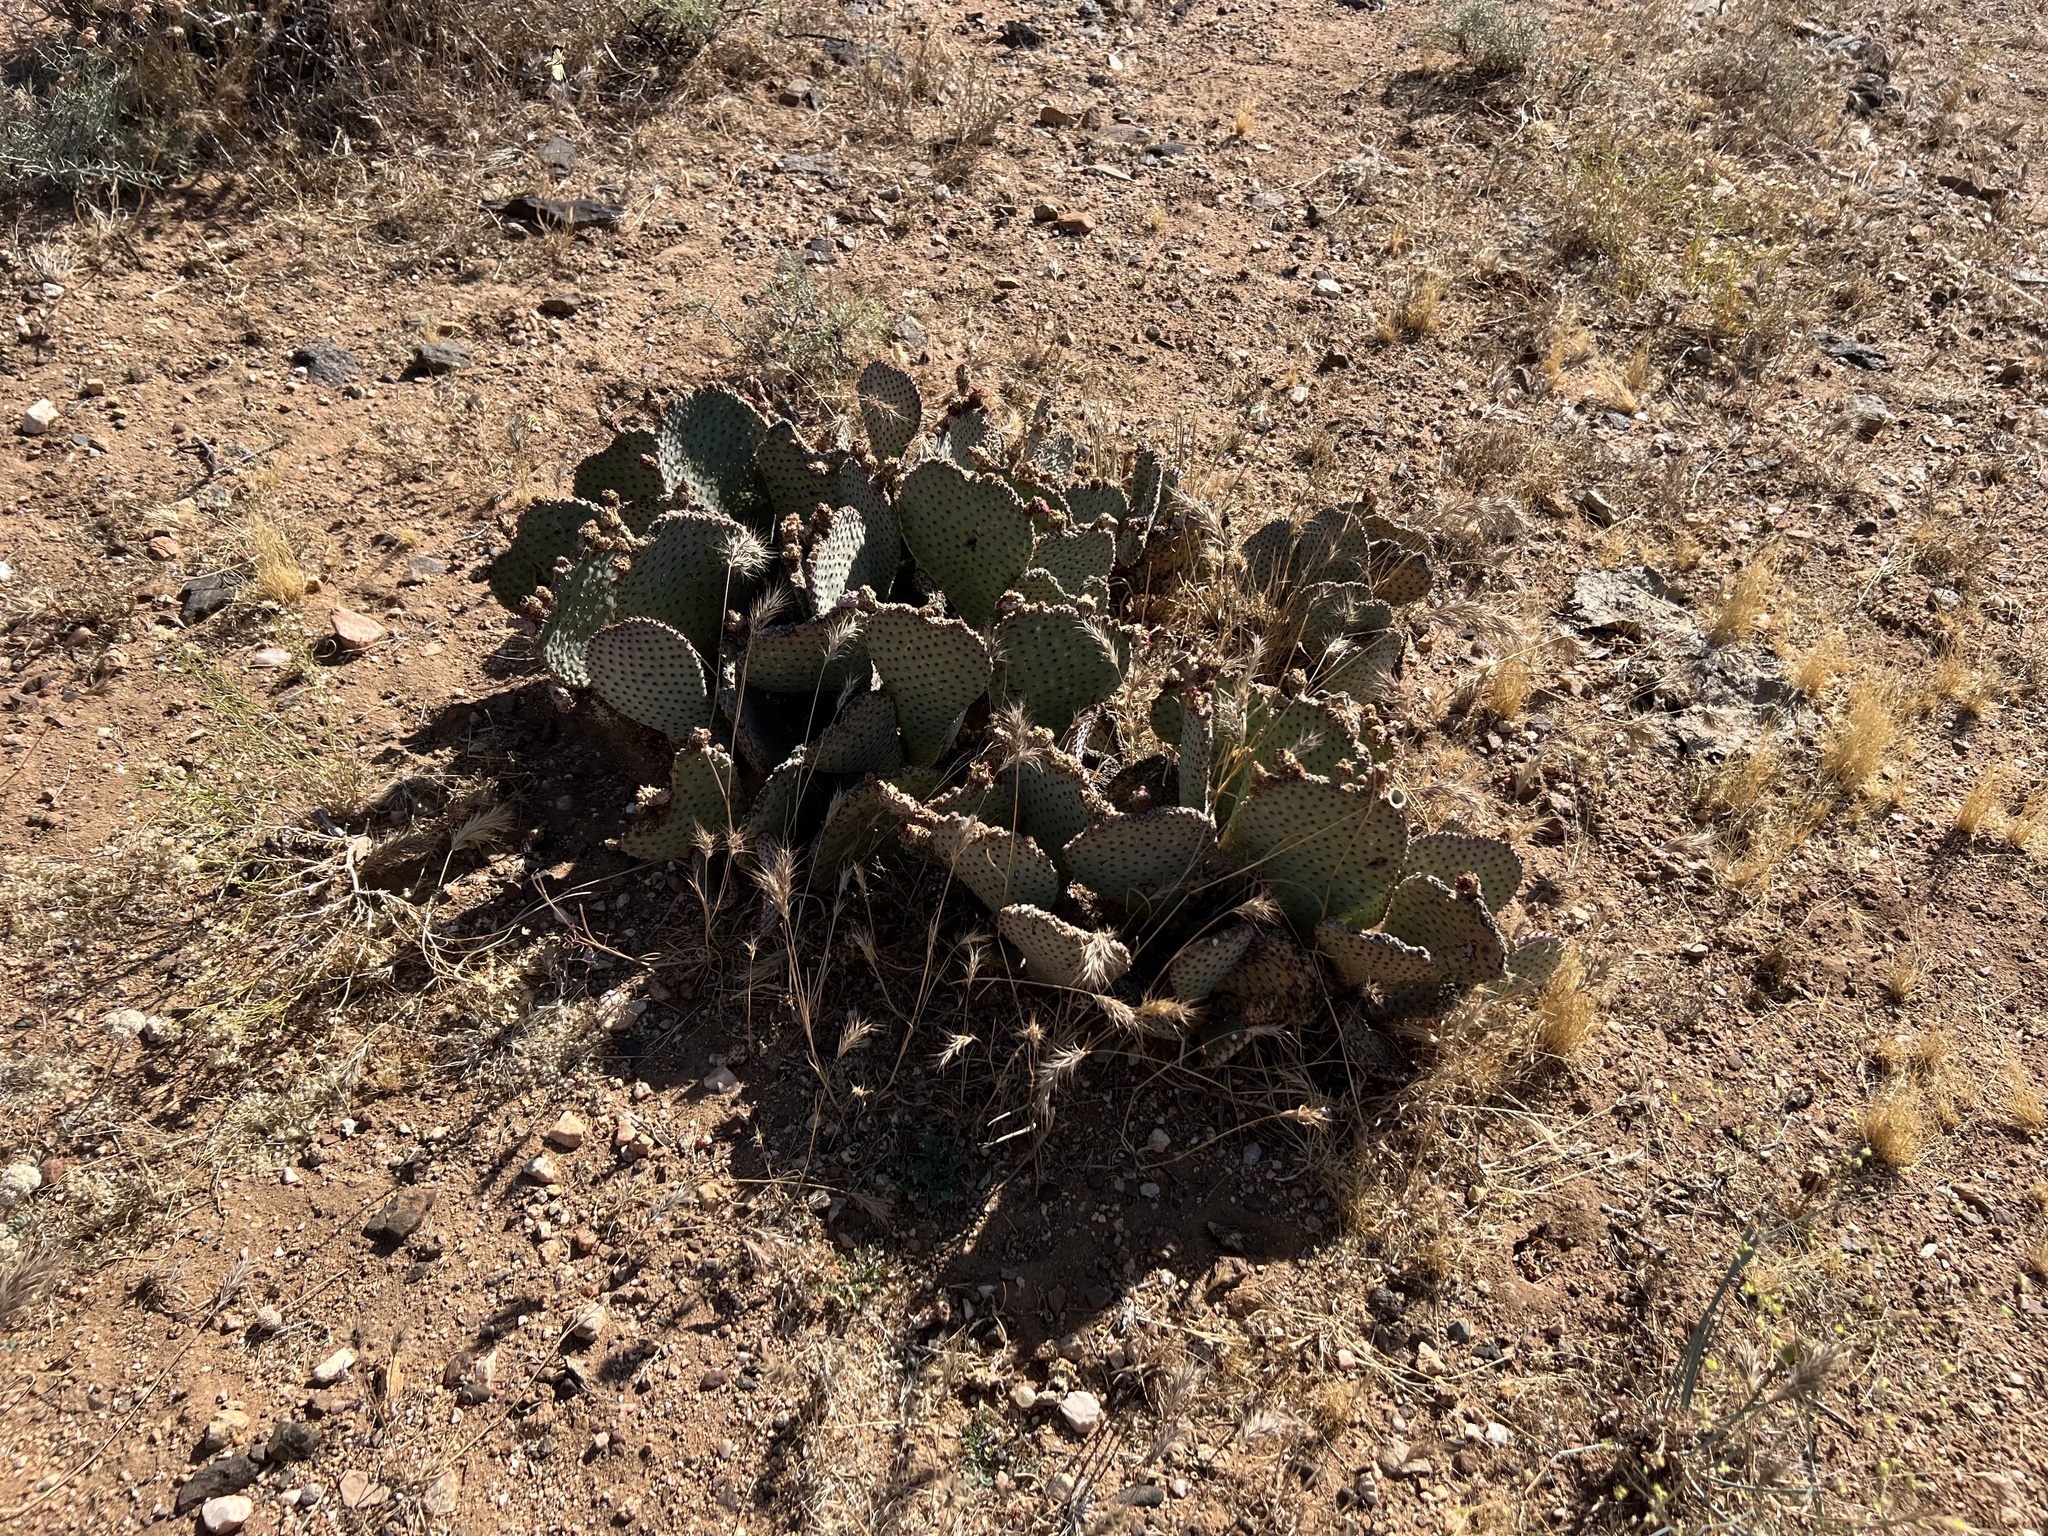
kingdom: Plantae
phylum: Tracheophyta
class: Magnoliopsida
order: Caryophyllales
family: Cactaceae
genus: Opuntia
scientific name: Opuntia basilaris
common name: Beavertail prickly-pear
